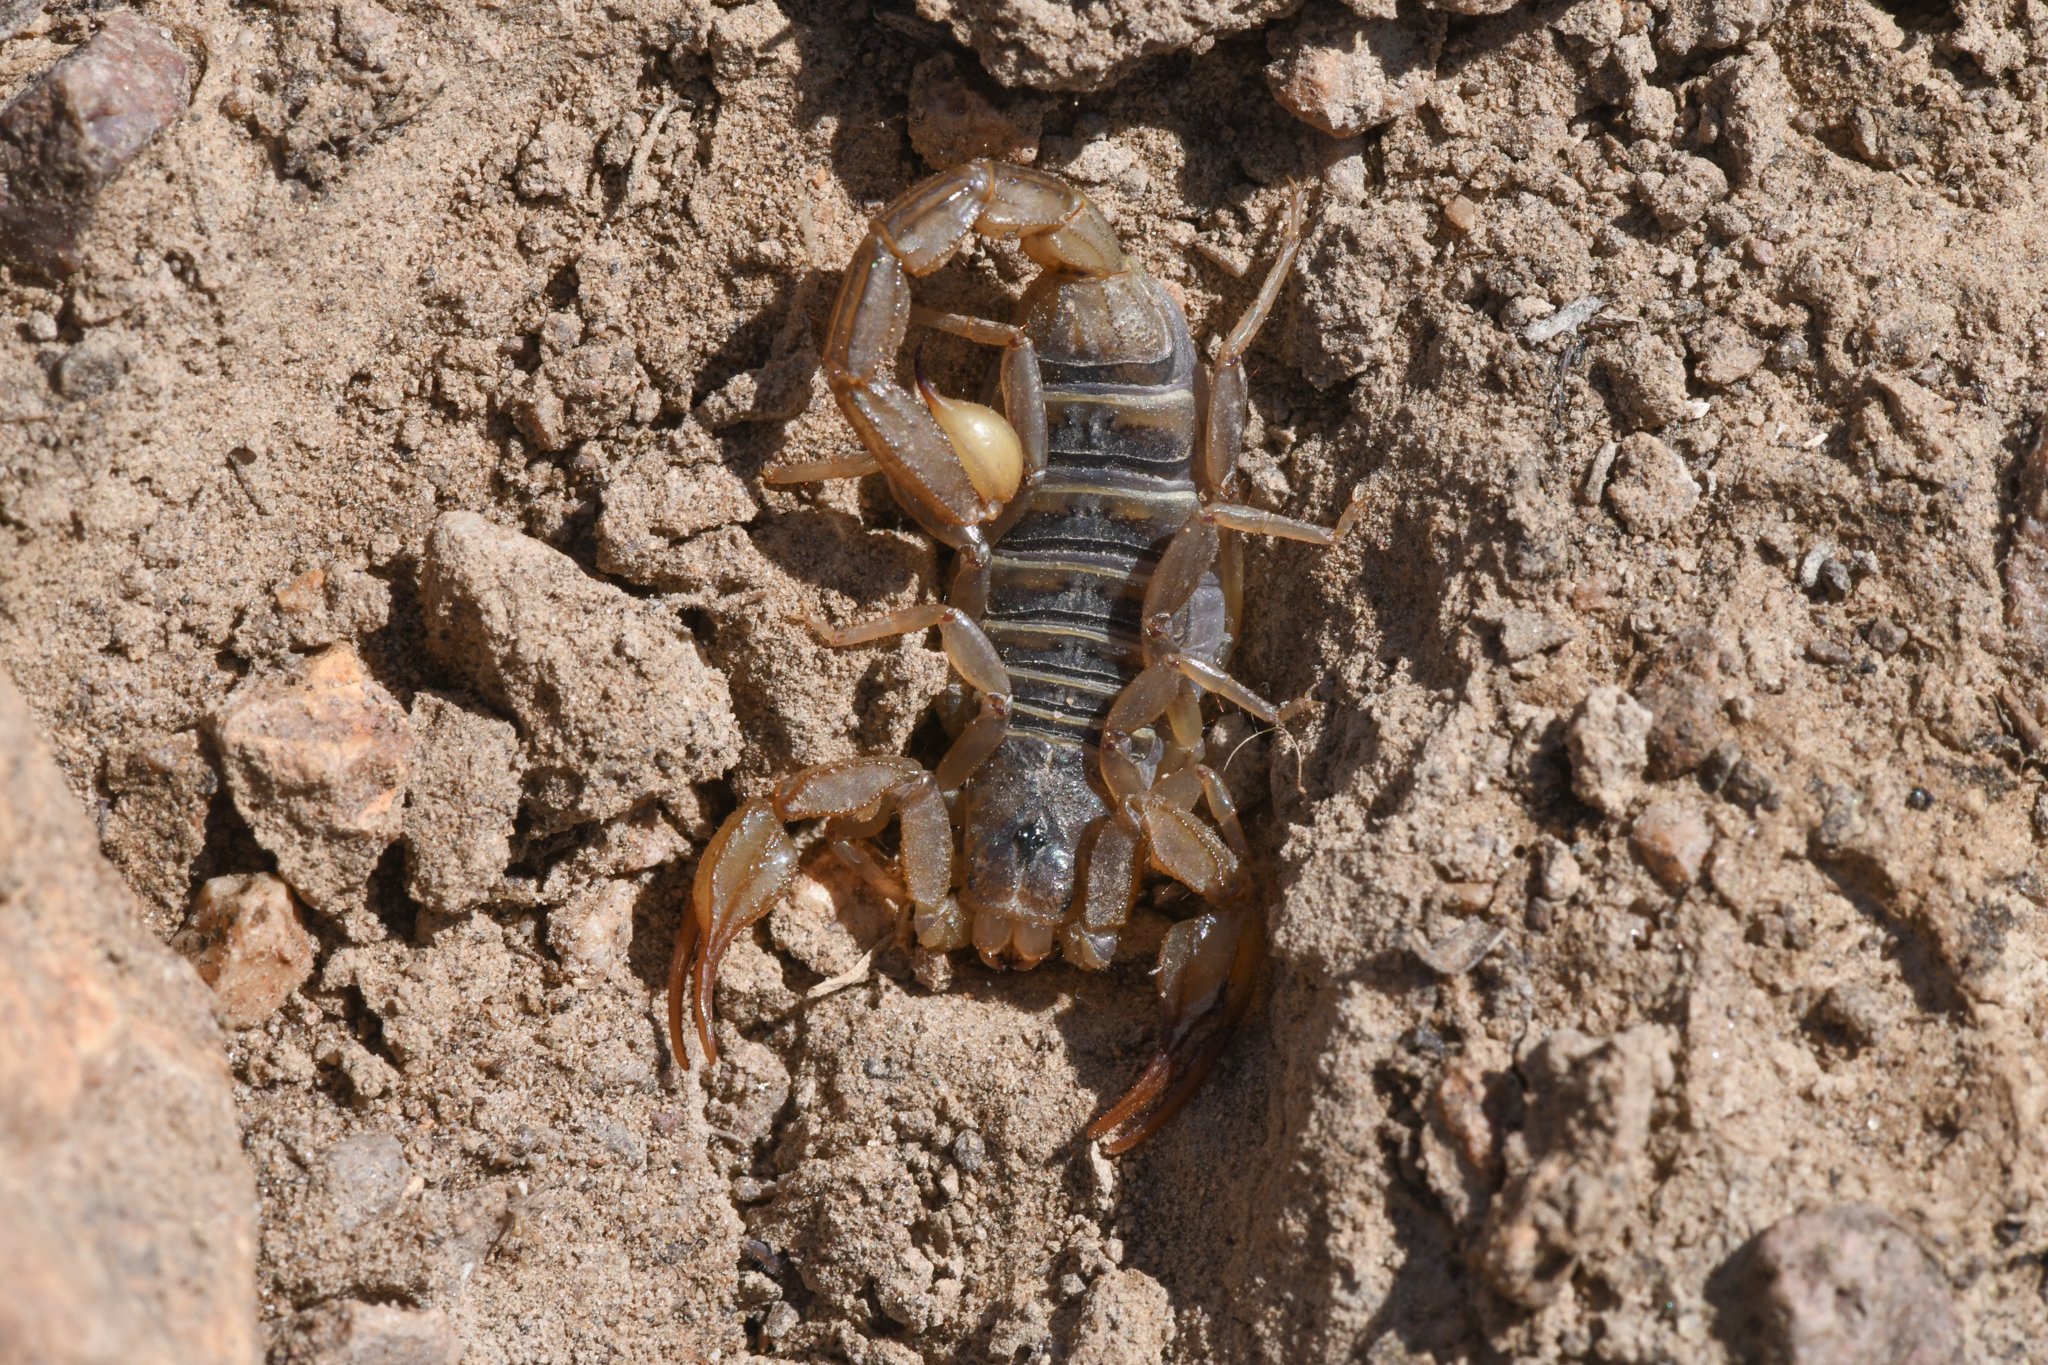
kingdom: Animalia
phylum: Arthropoda
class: Arachnida
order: Scorpiones
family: Vaejovidae
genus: Paruroctonus
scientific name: Paruroctonus boreus
